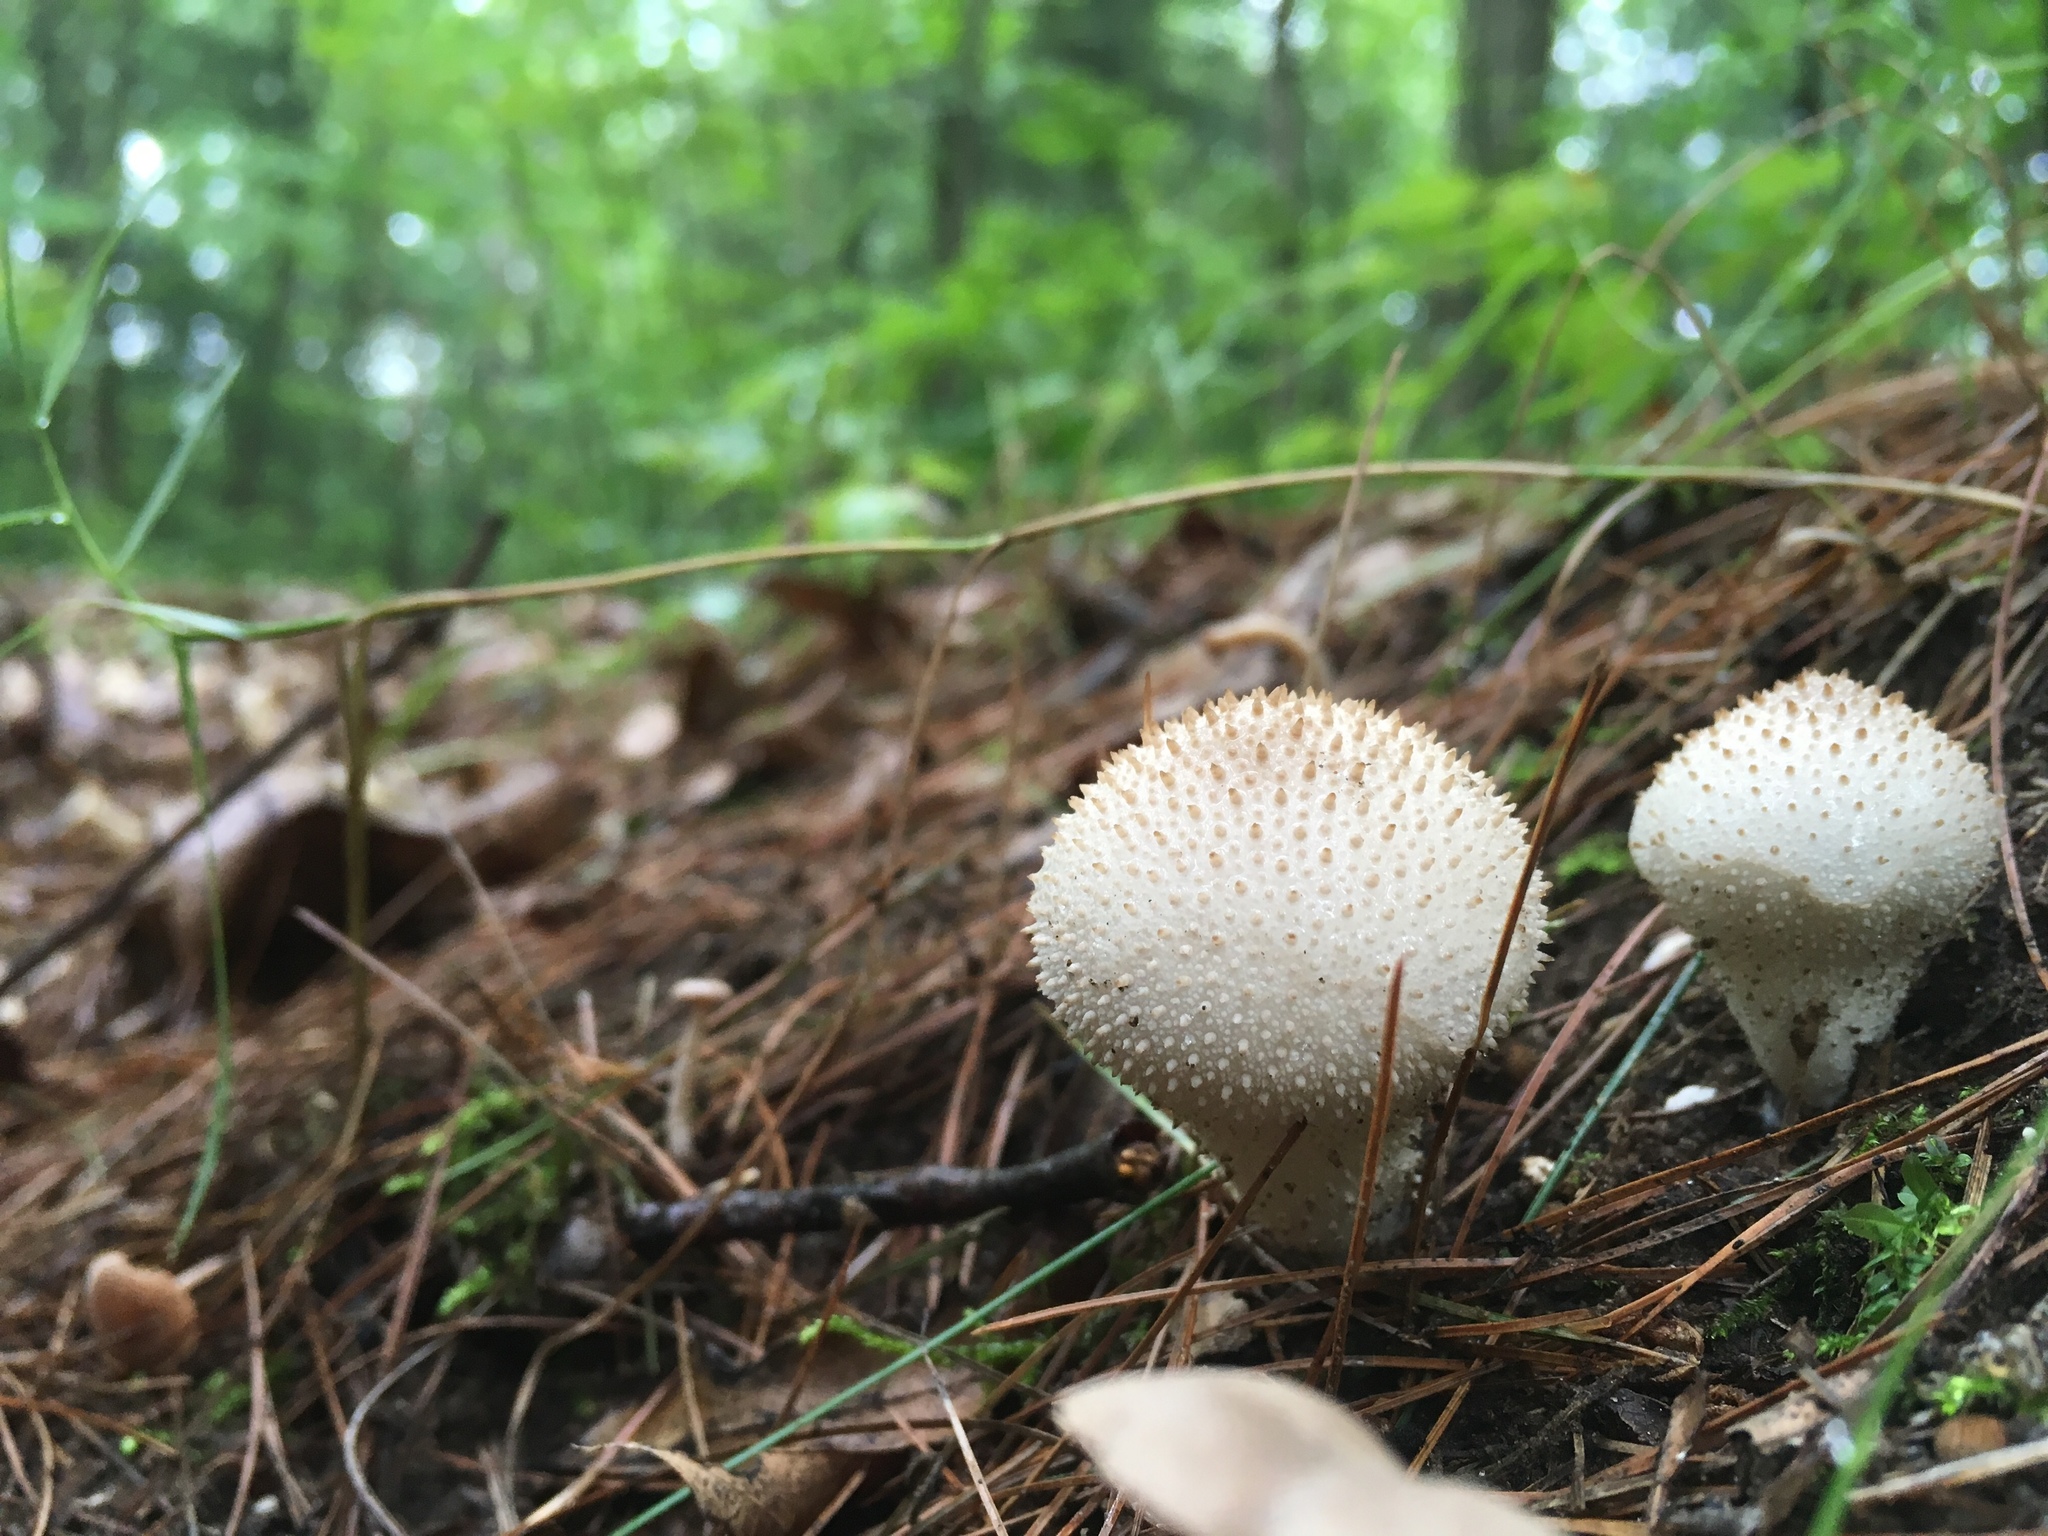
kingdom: Fungi
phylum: Basidiomycota
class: Agaricomycetes
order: Agaricales
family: Lycoperdaceae
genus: Lycoperdon
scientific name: Lycoperdon perlatum
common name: Common puffball
